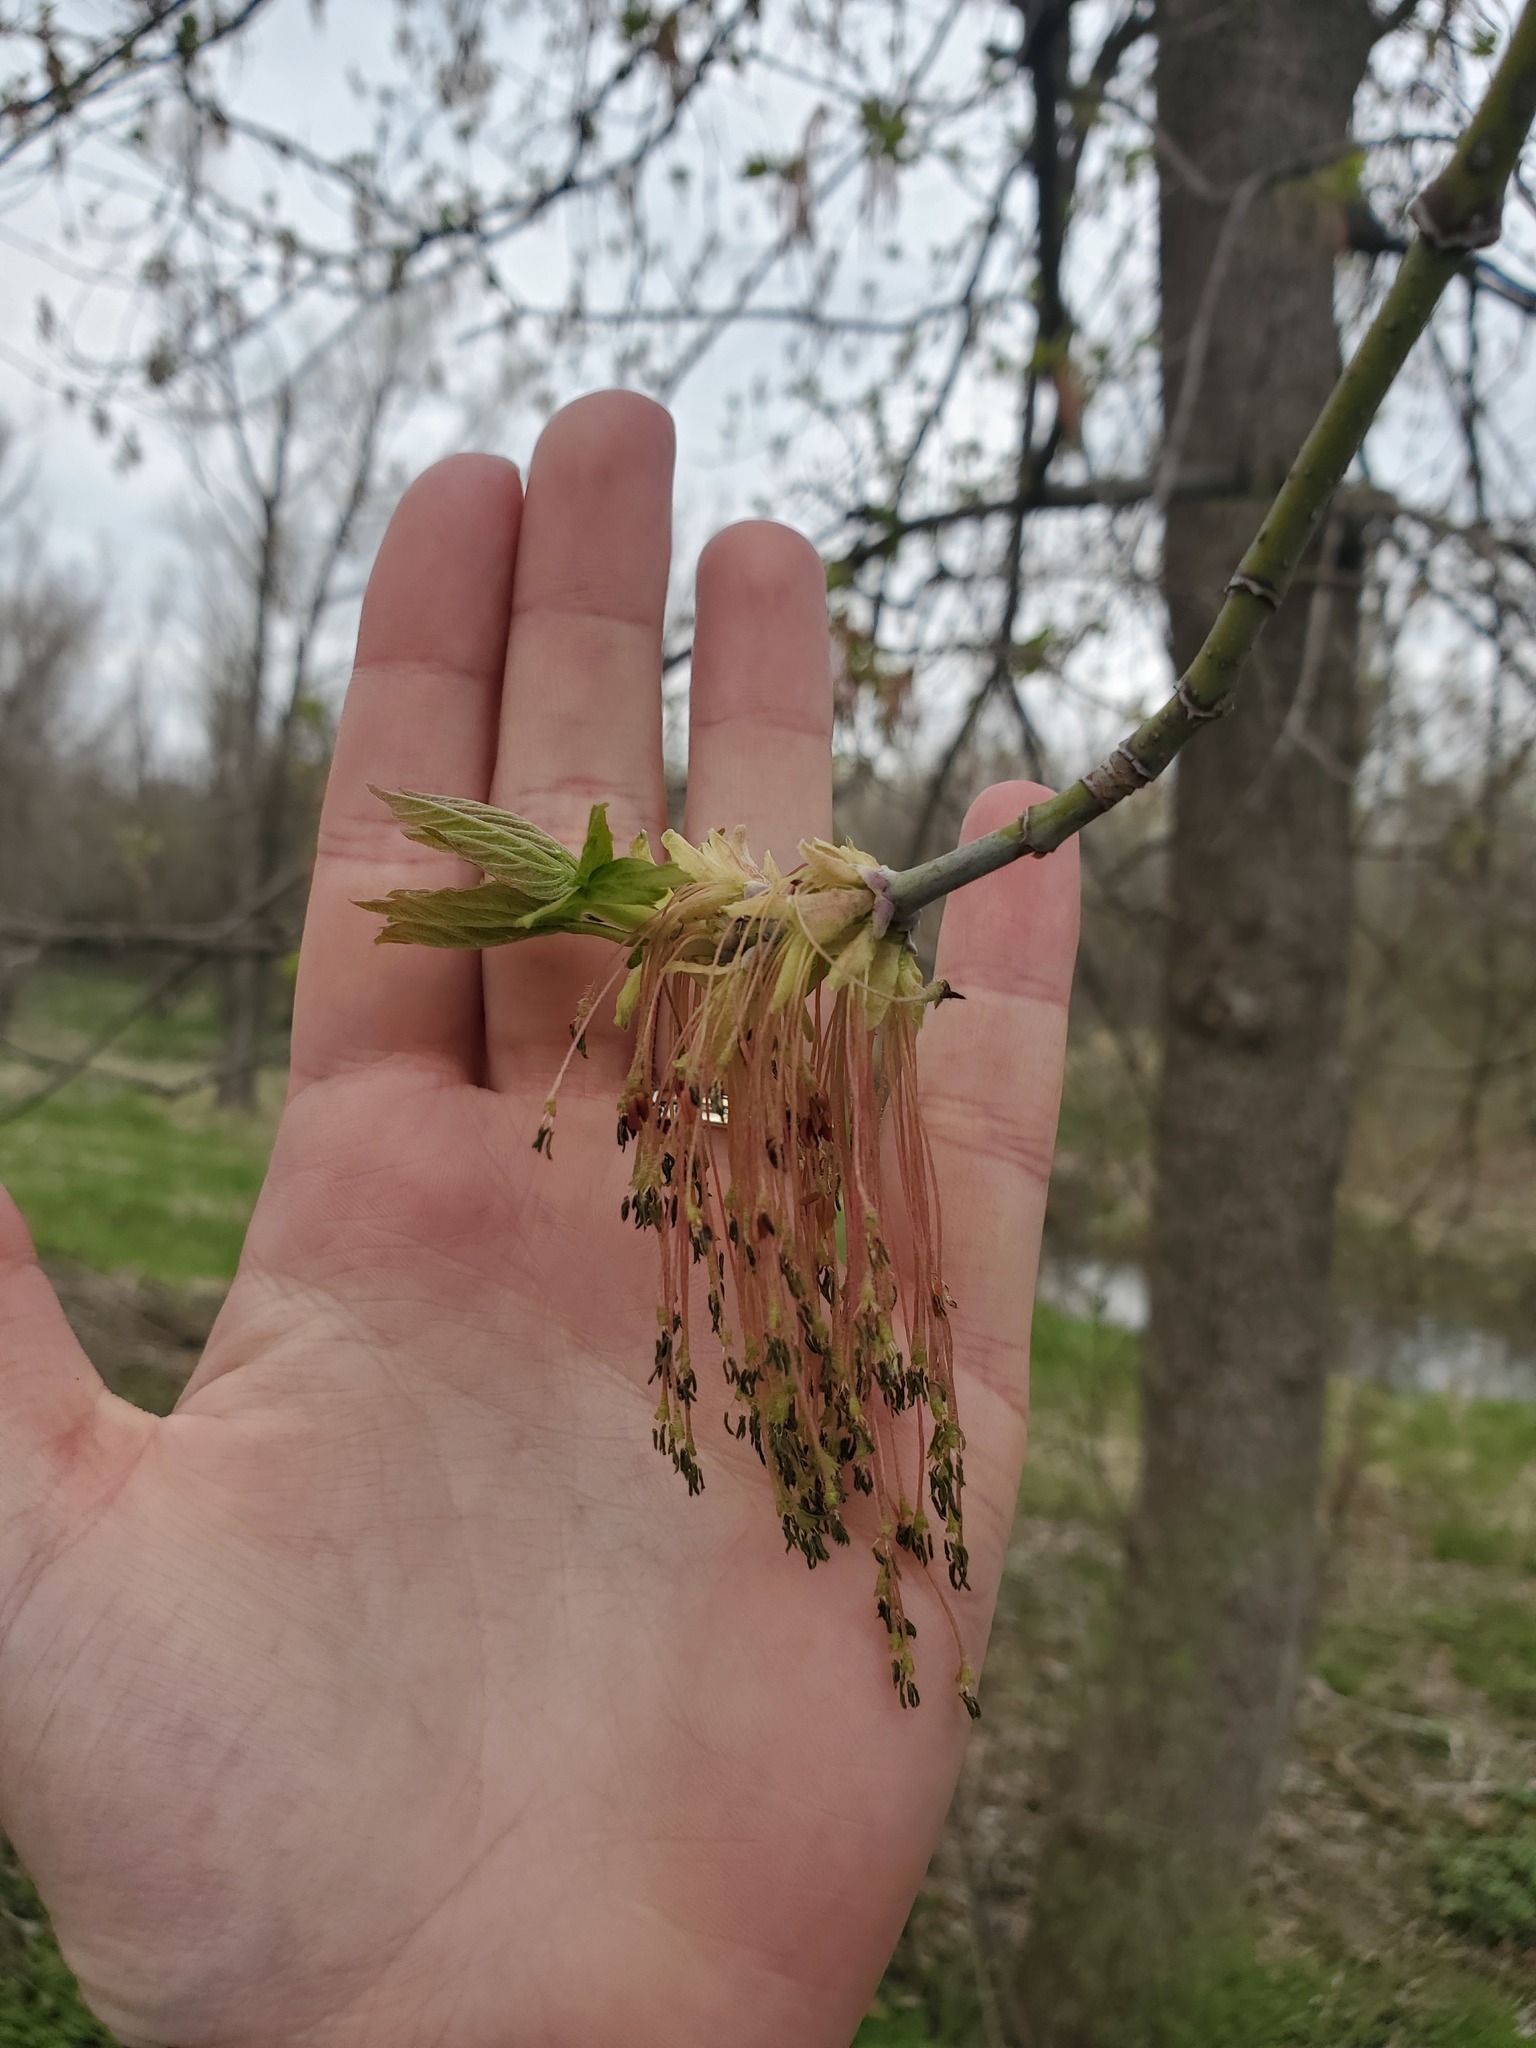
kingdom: Plantae
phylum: Tracheophyta
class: Magnoliopsida
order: Sapindales
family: Sapindaceae
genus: Acer
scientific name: Acer negundo
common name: Ashleaf maple
